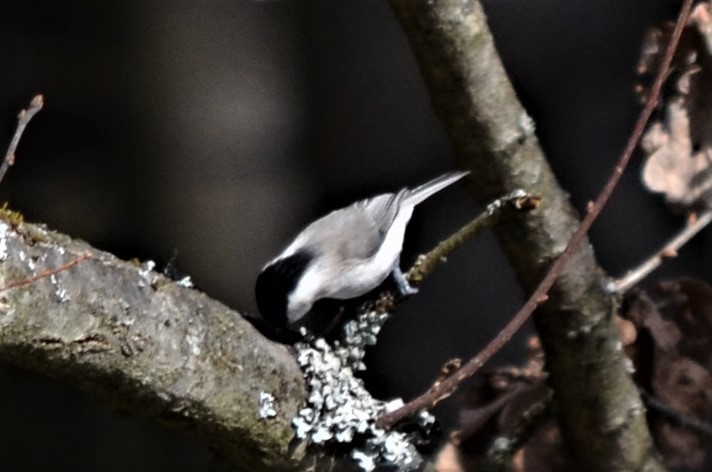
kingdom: Animalia
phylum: Chordata
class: Aves
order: Passeriformes
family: Paridae
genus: Poecile
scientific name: Poecile palustris
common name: Marsh tit
